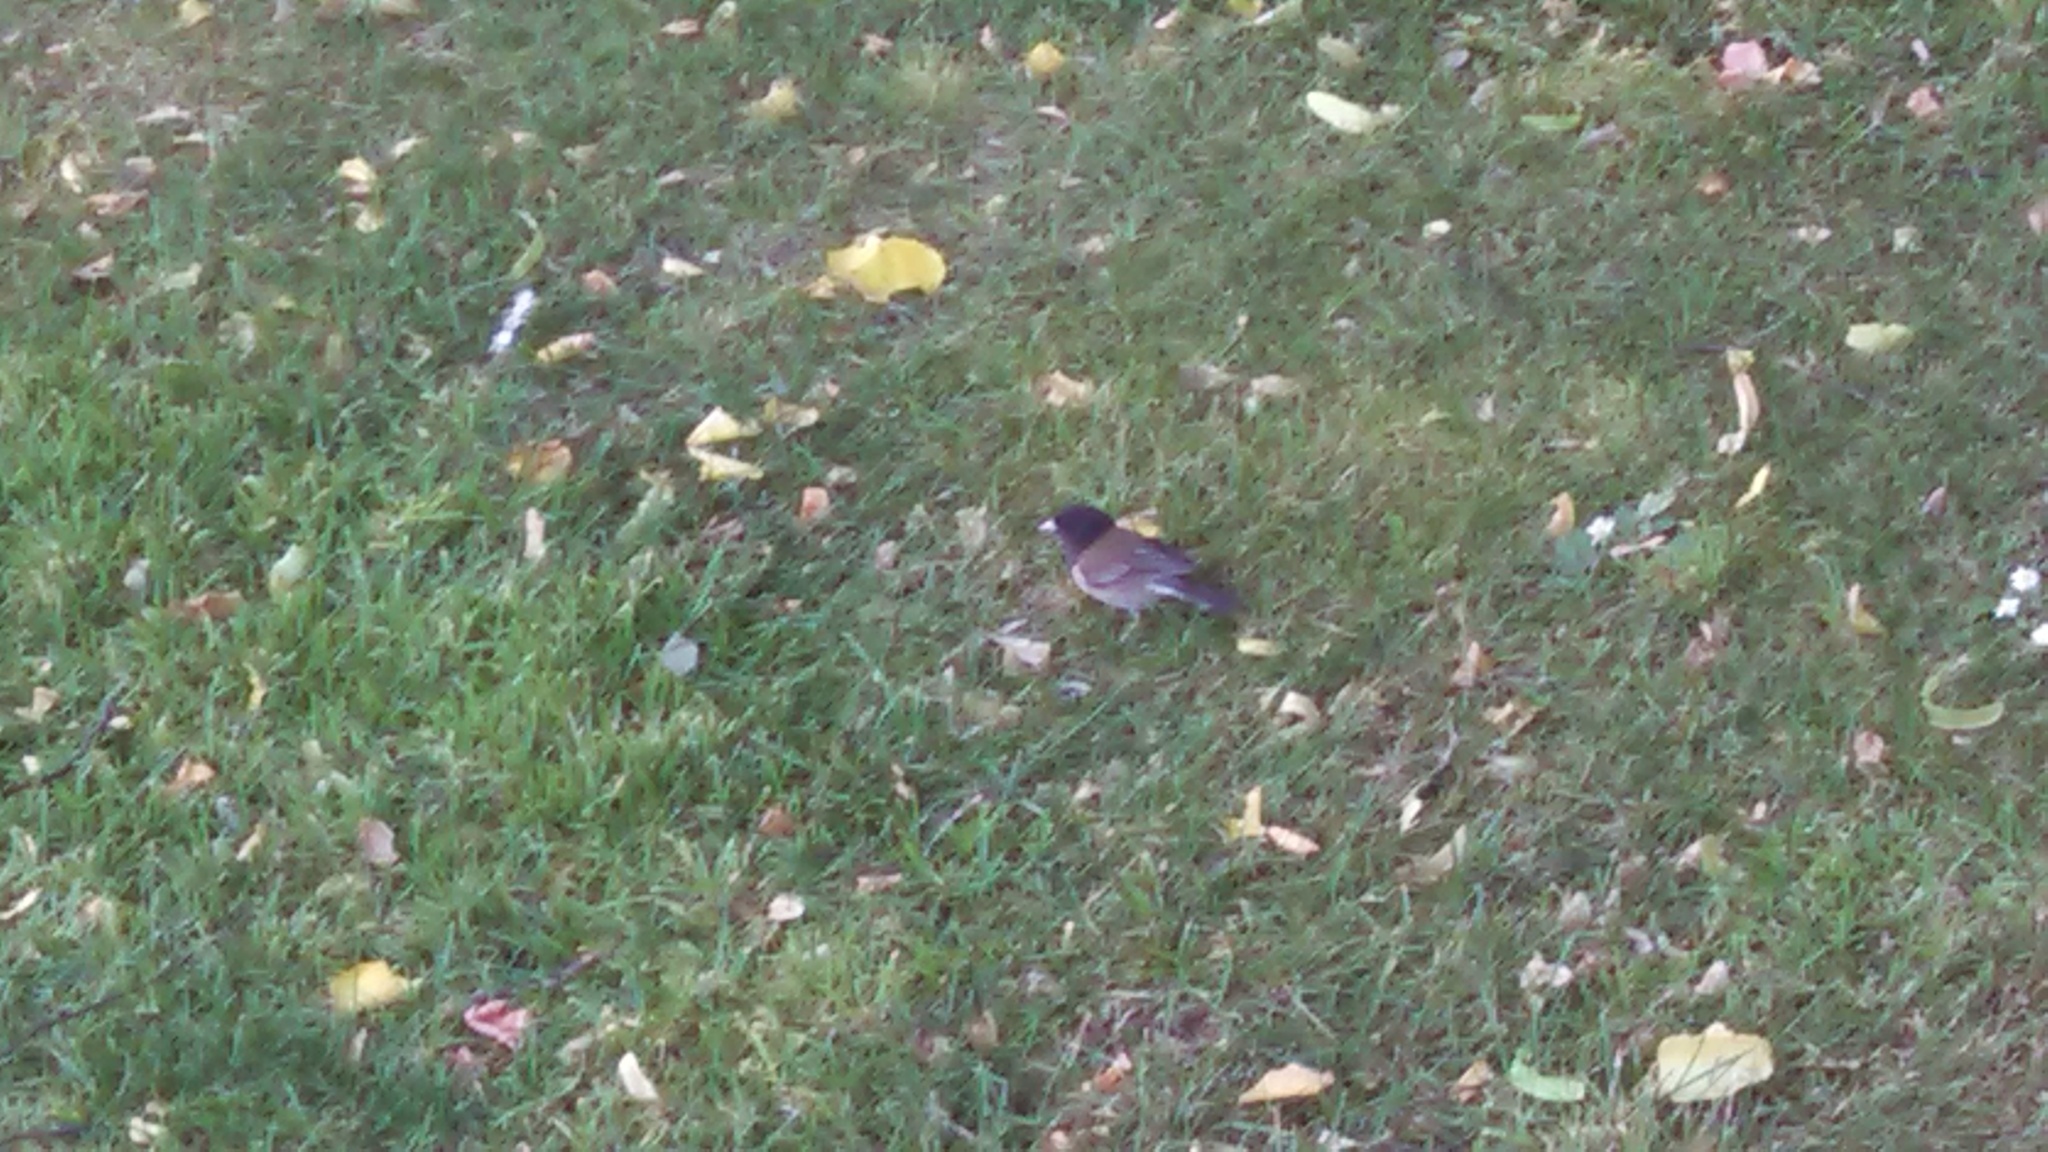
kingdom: Animalia
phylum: Chordata
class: Aves
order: Passeriformes
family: Passerellidae
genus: Junco
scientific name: Junco hyemalis
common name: Dark-eyed junco
